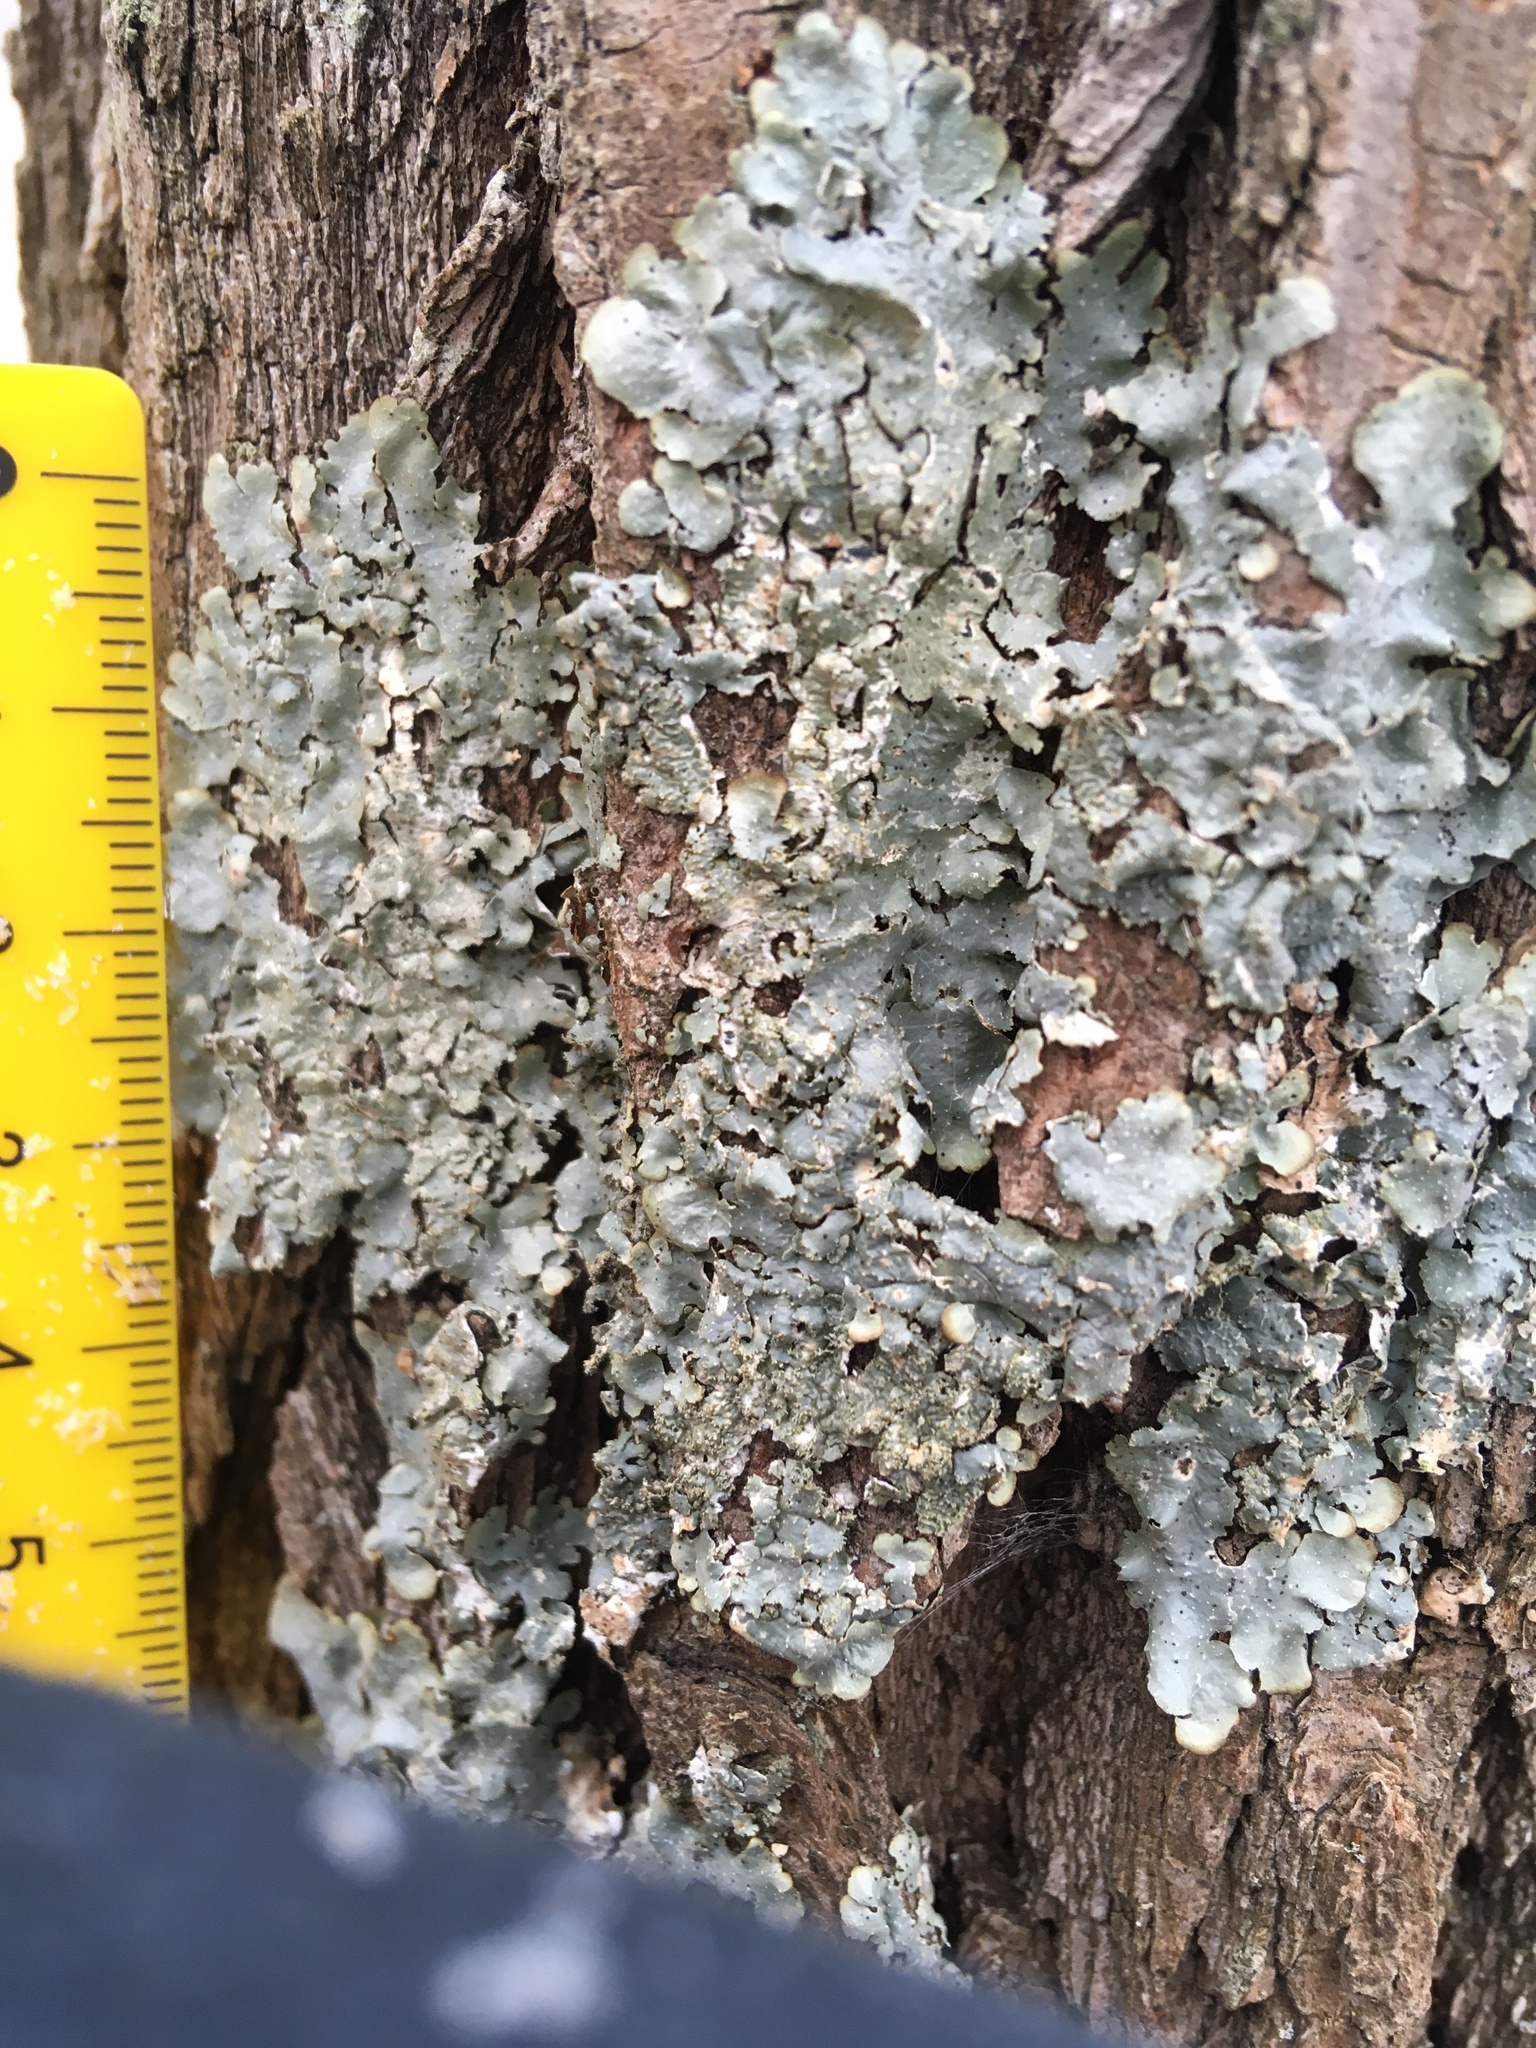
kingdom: Fungi
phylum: Ascomycota
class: Lecanoromycetes
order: Lecanorales
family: Parmeliaceae
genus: Punctelia
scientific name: Punctelia rudecta
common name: Rough speckled shield lichen
